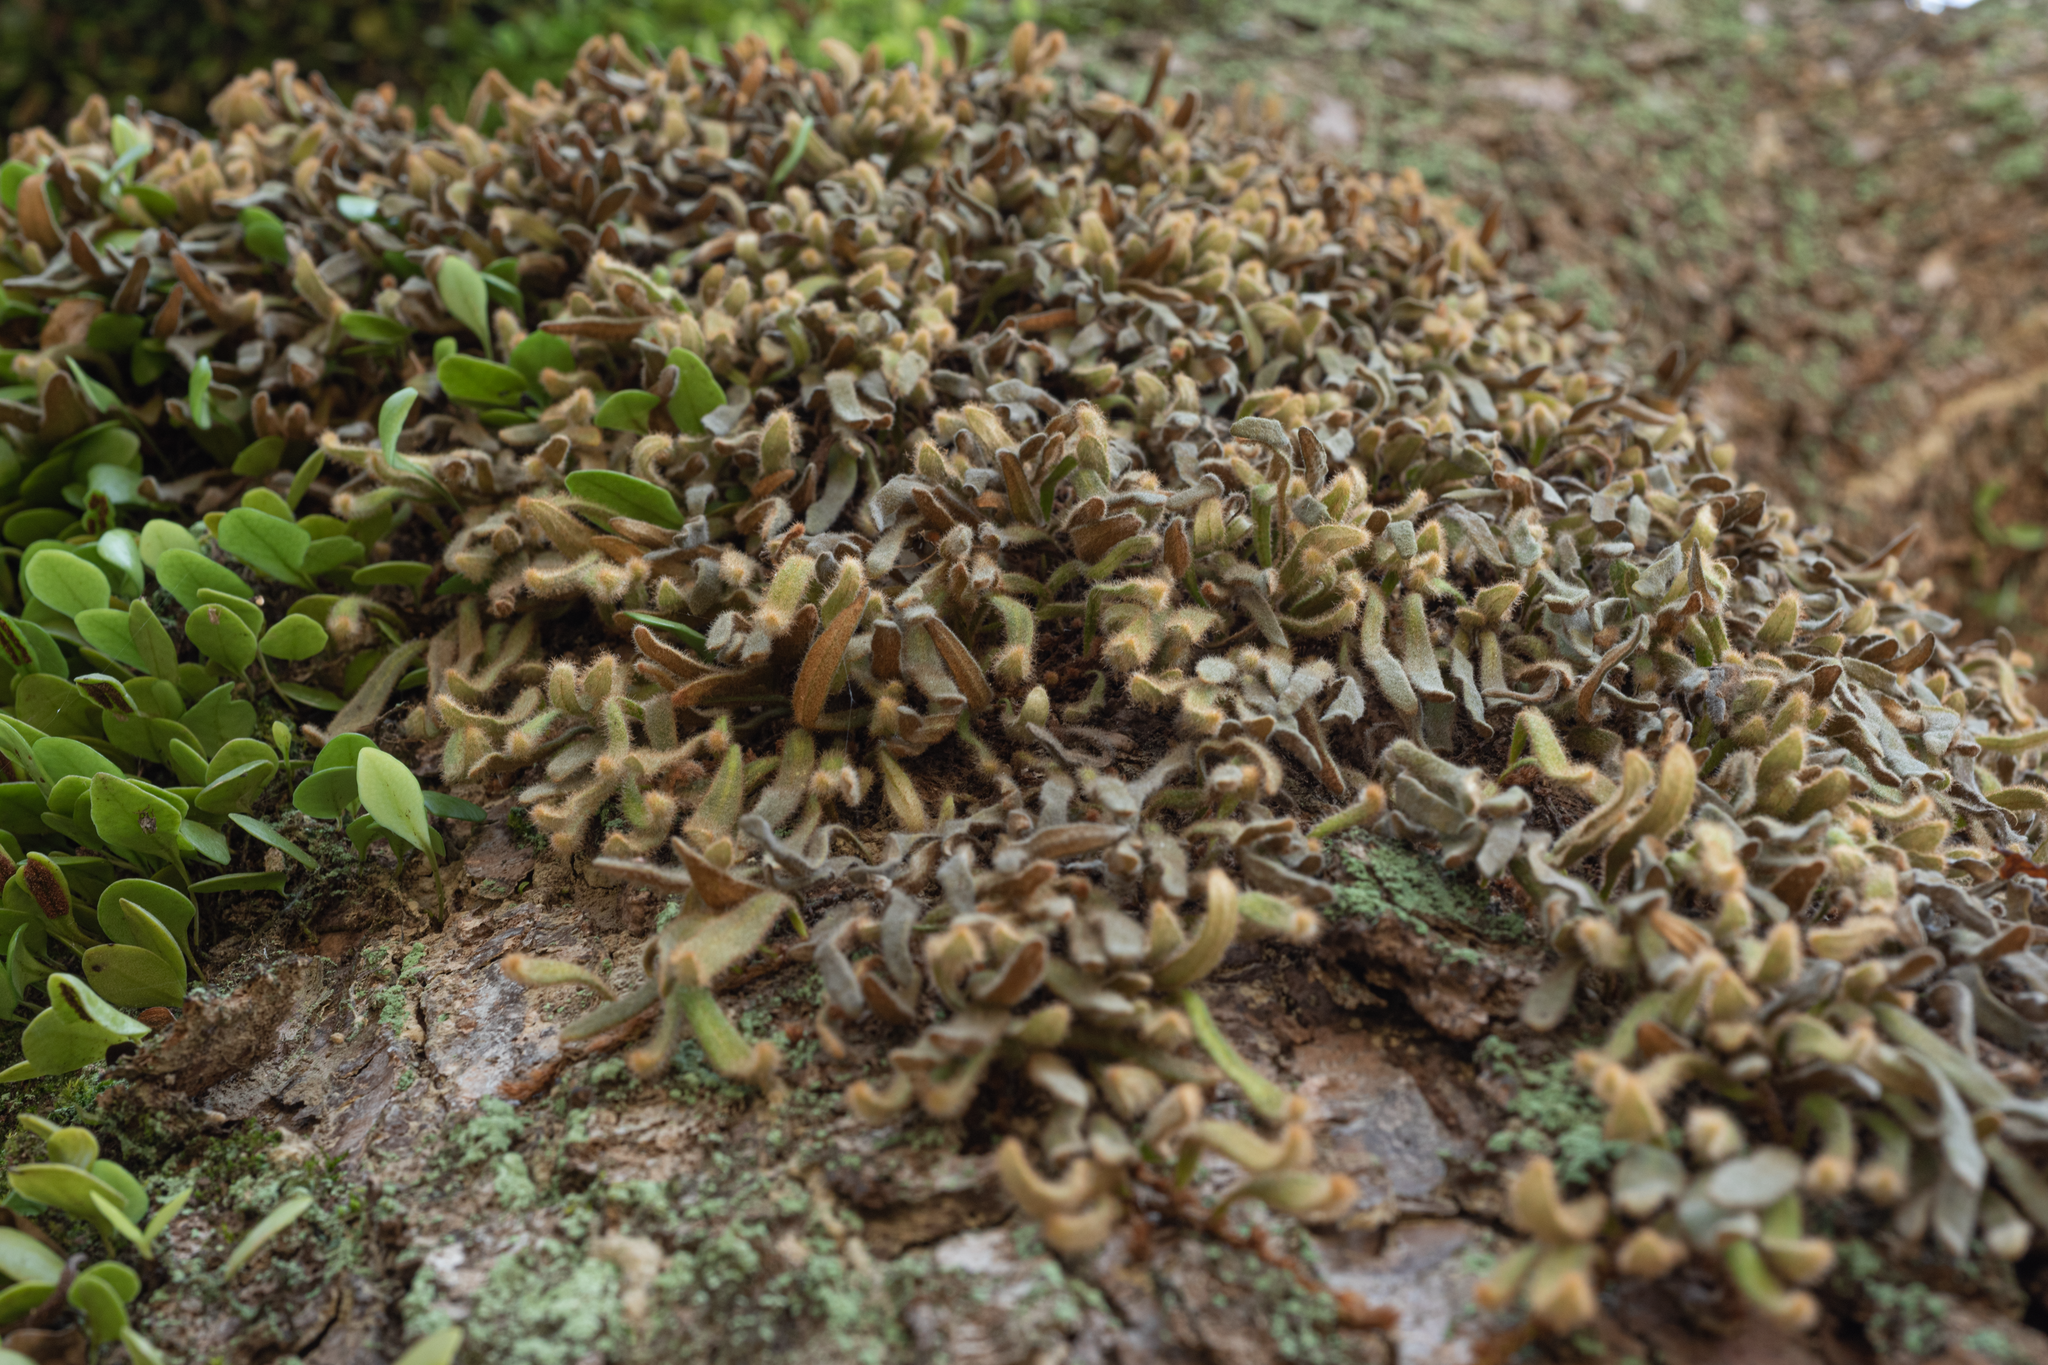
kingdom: Plantae
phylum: Tracheophyta
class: Polypodiopsida
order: Polypodiales
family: Polypodiaceae
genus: Pyrrosia
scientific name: Pyrrosia linearifolia
